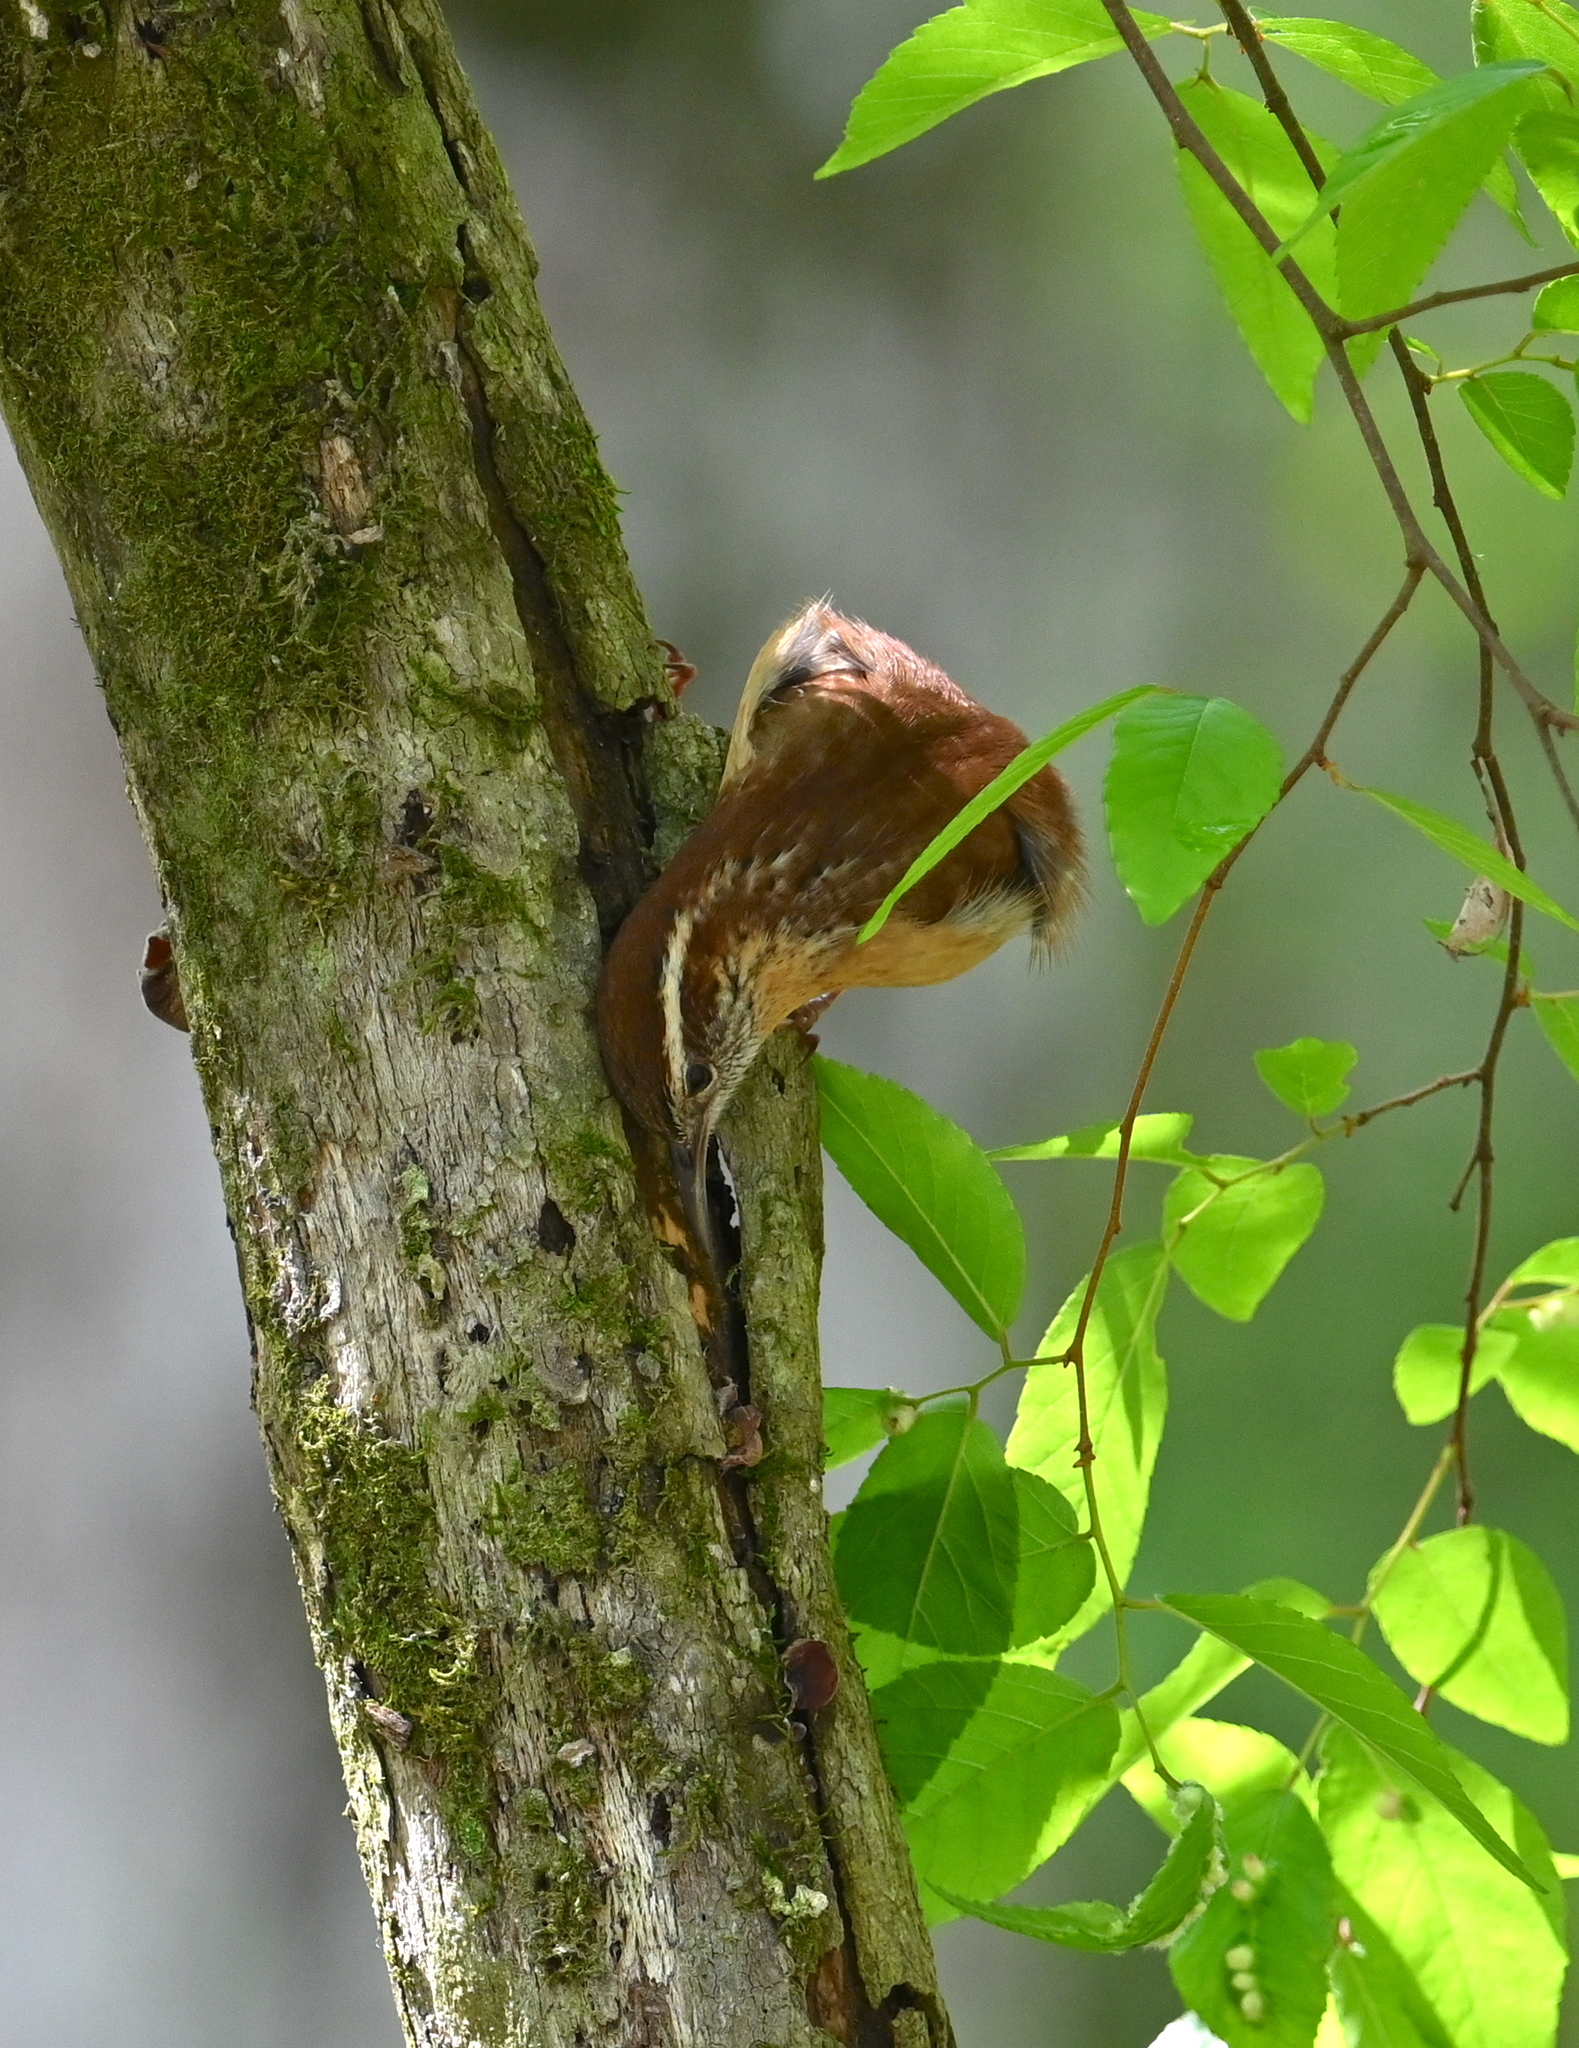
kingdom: Animalia
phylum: Chordata
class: Aves
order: Passeriformes
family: Troglodytidae
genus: Thryothorus
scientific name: Thryothorus ludovicianus
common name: Carolina wren
